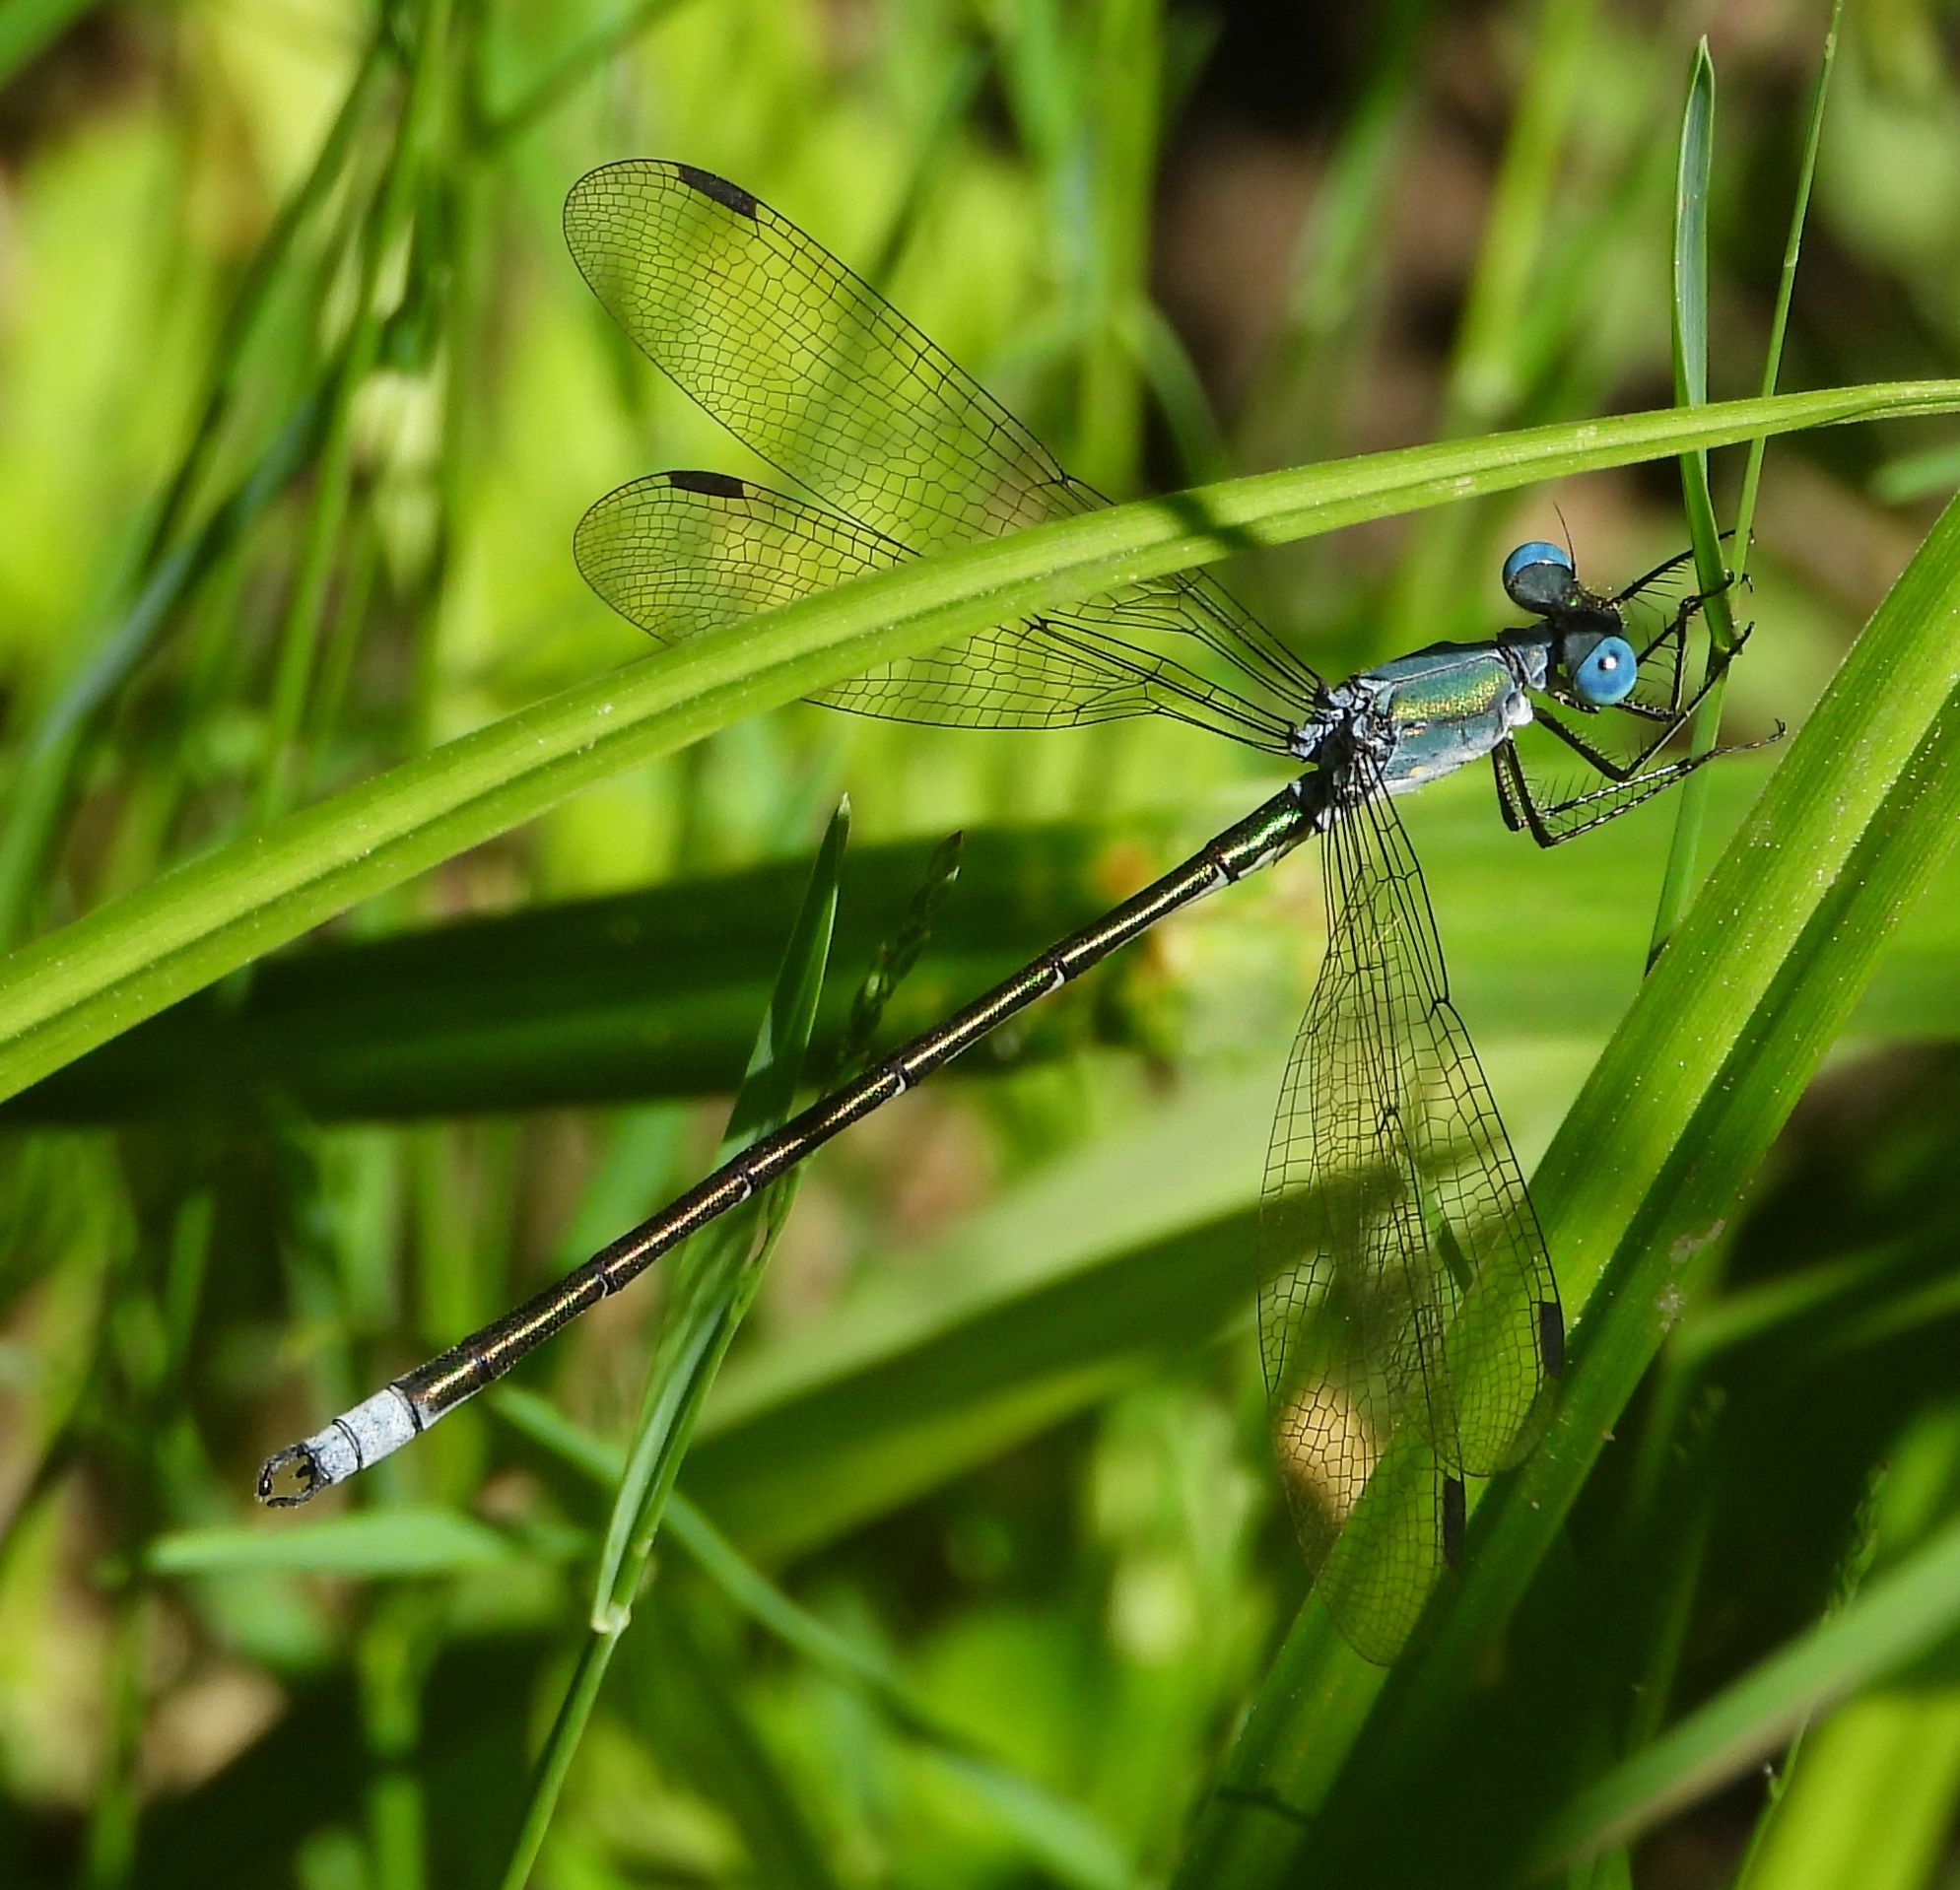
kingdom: Animalia
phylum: Arthropoda
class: Insecta
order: Odonata
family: Lestidae
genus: Lestes
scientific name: Lestes eurinus
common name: Amber-winged spreadwing
